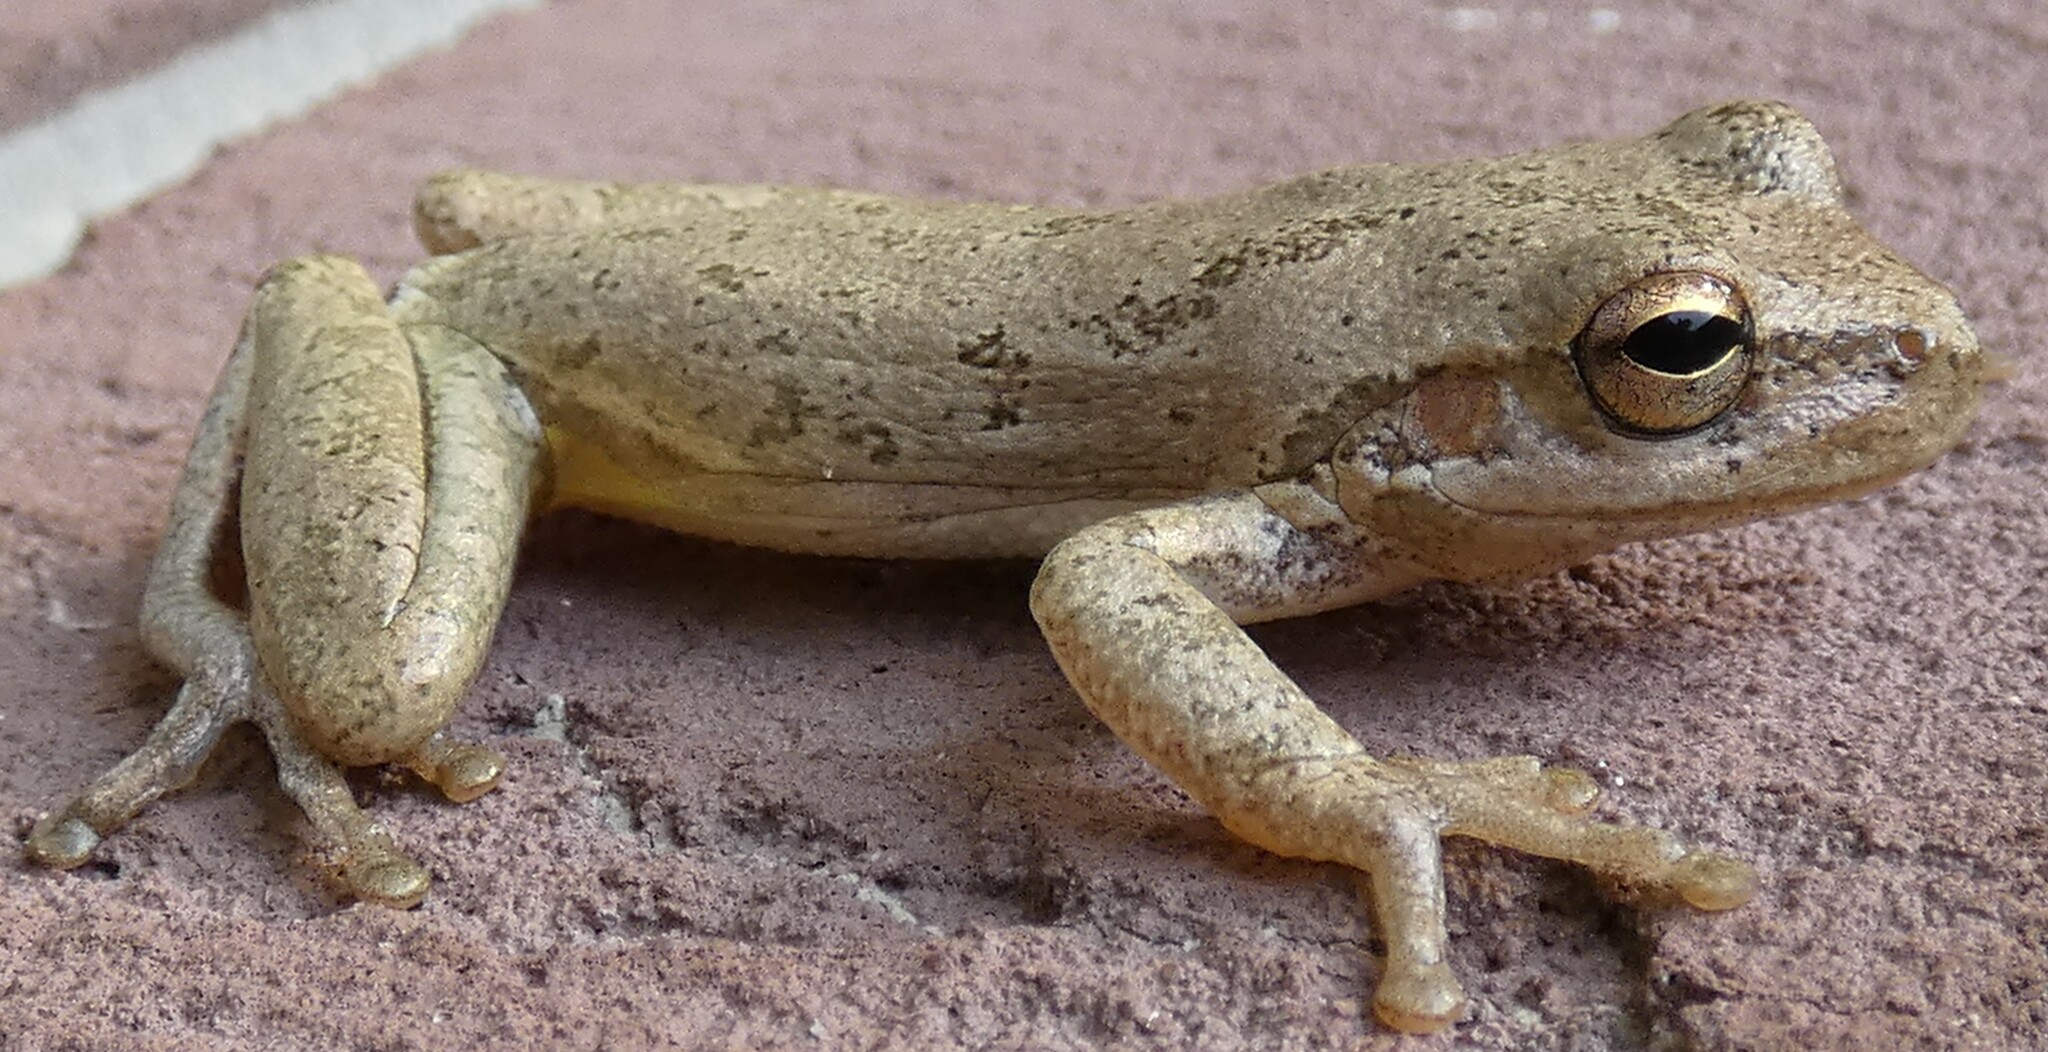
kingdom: Animalia
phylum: Chordata
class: Amphibia
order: Anura
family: Hylidae
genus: Dryophytes
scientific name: Dryophytes squirellus
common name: Squirrel treefrog
